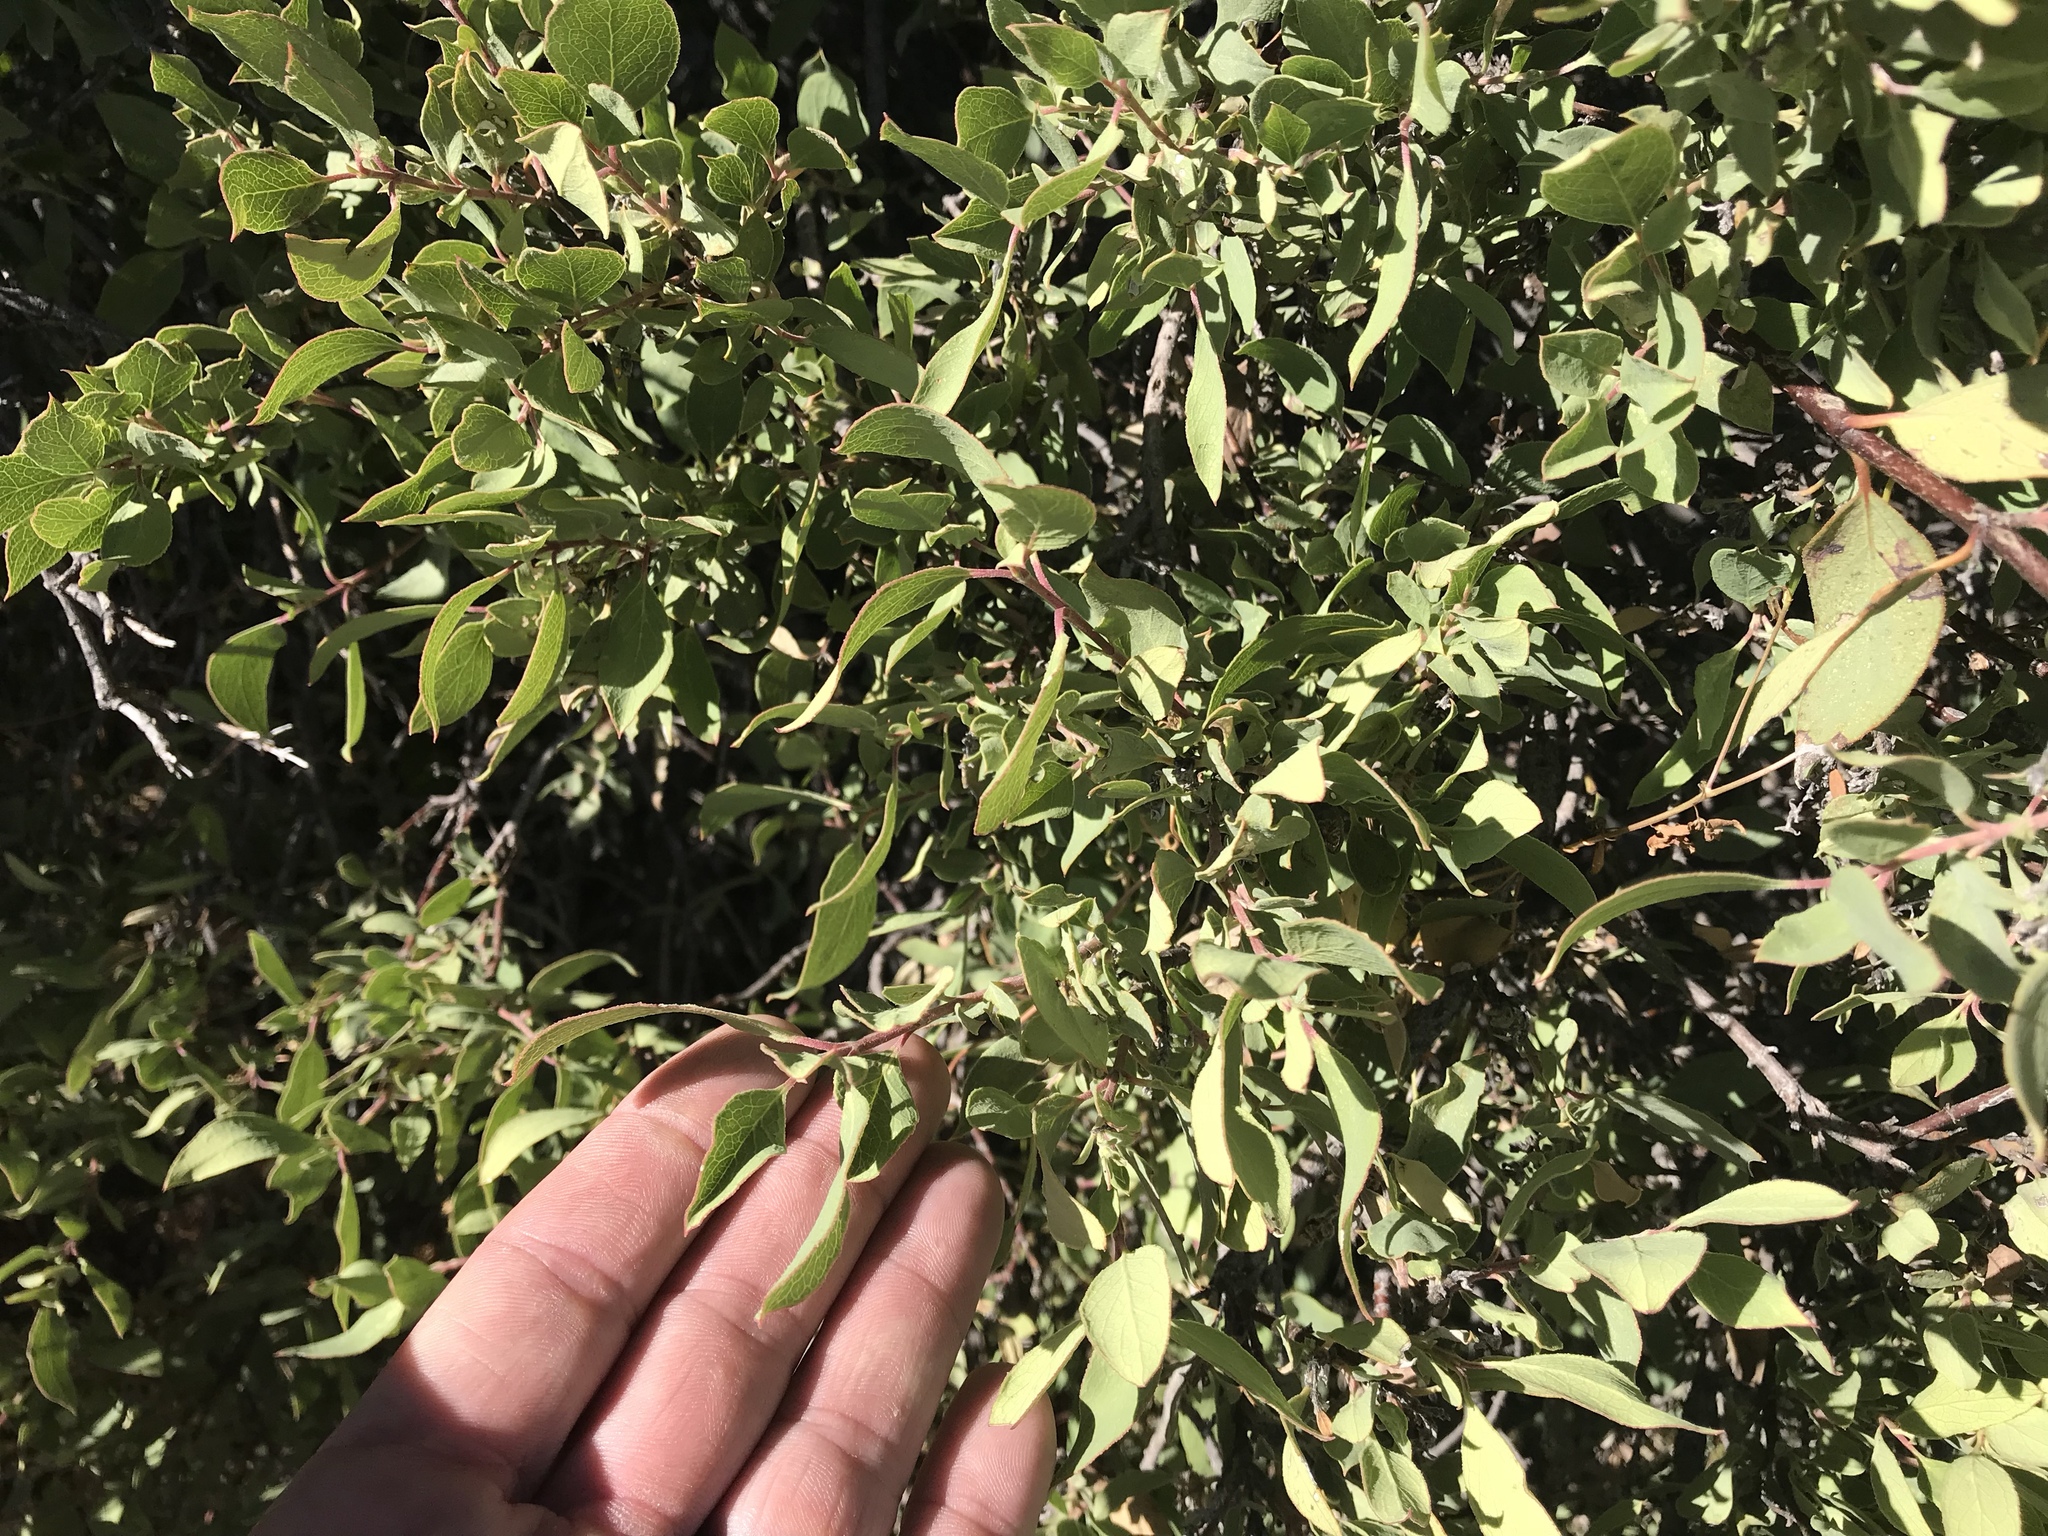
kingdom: Plantae
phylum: Tracheophyta
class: Magnoliopsida
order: Garryales
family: Garryaceae
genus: Garrya
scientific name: Garrya wrightii
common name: Wright's silktassel
